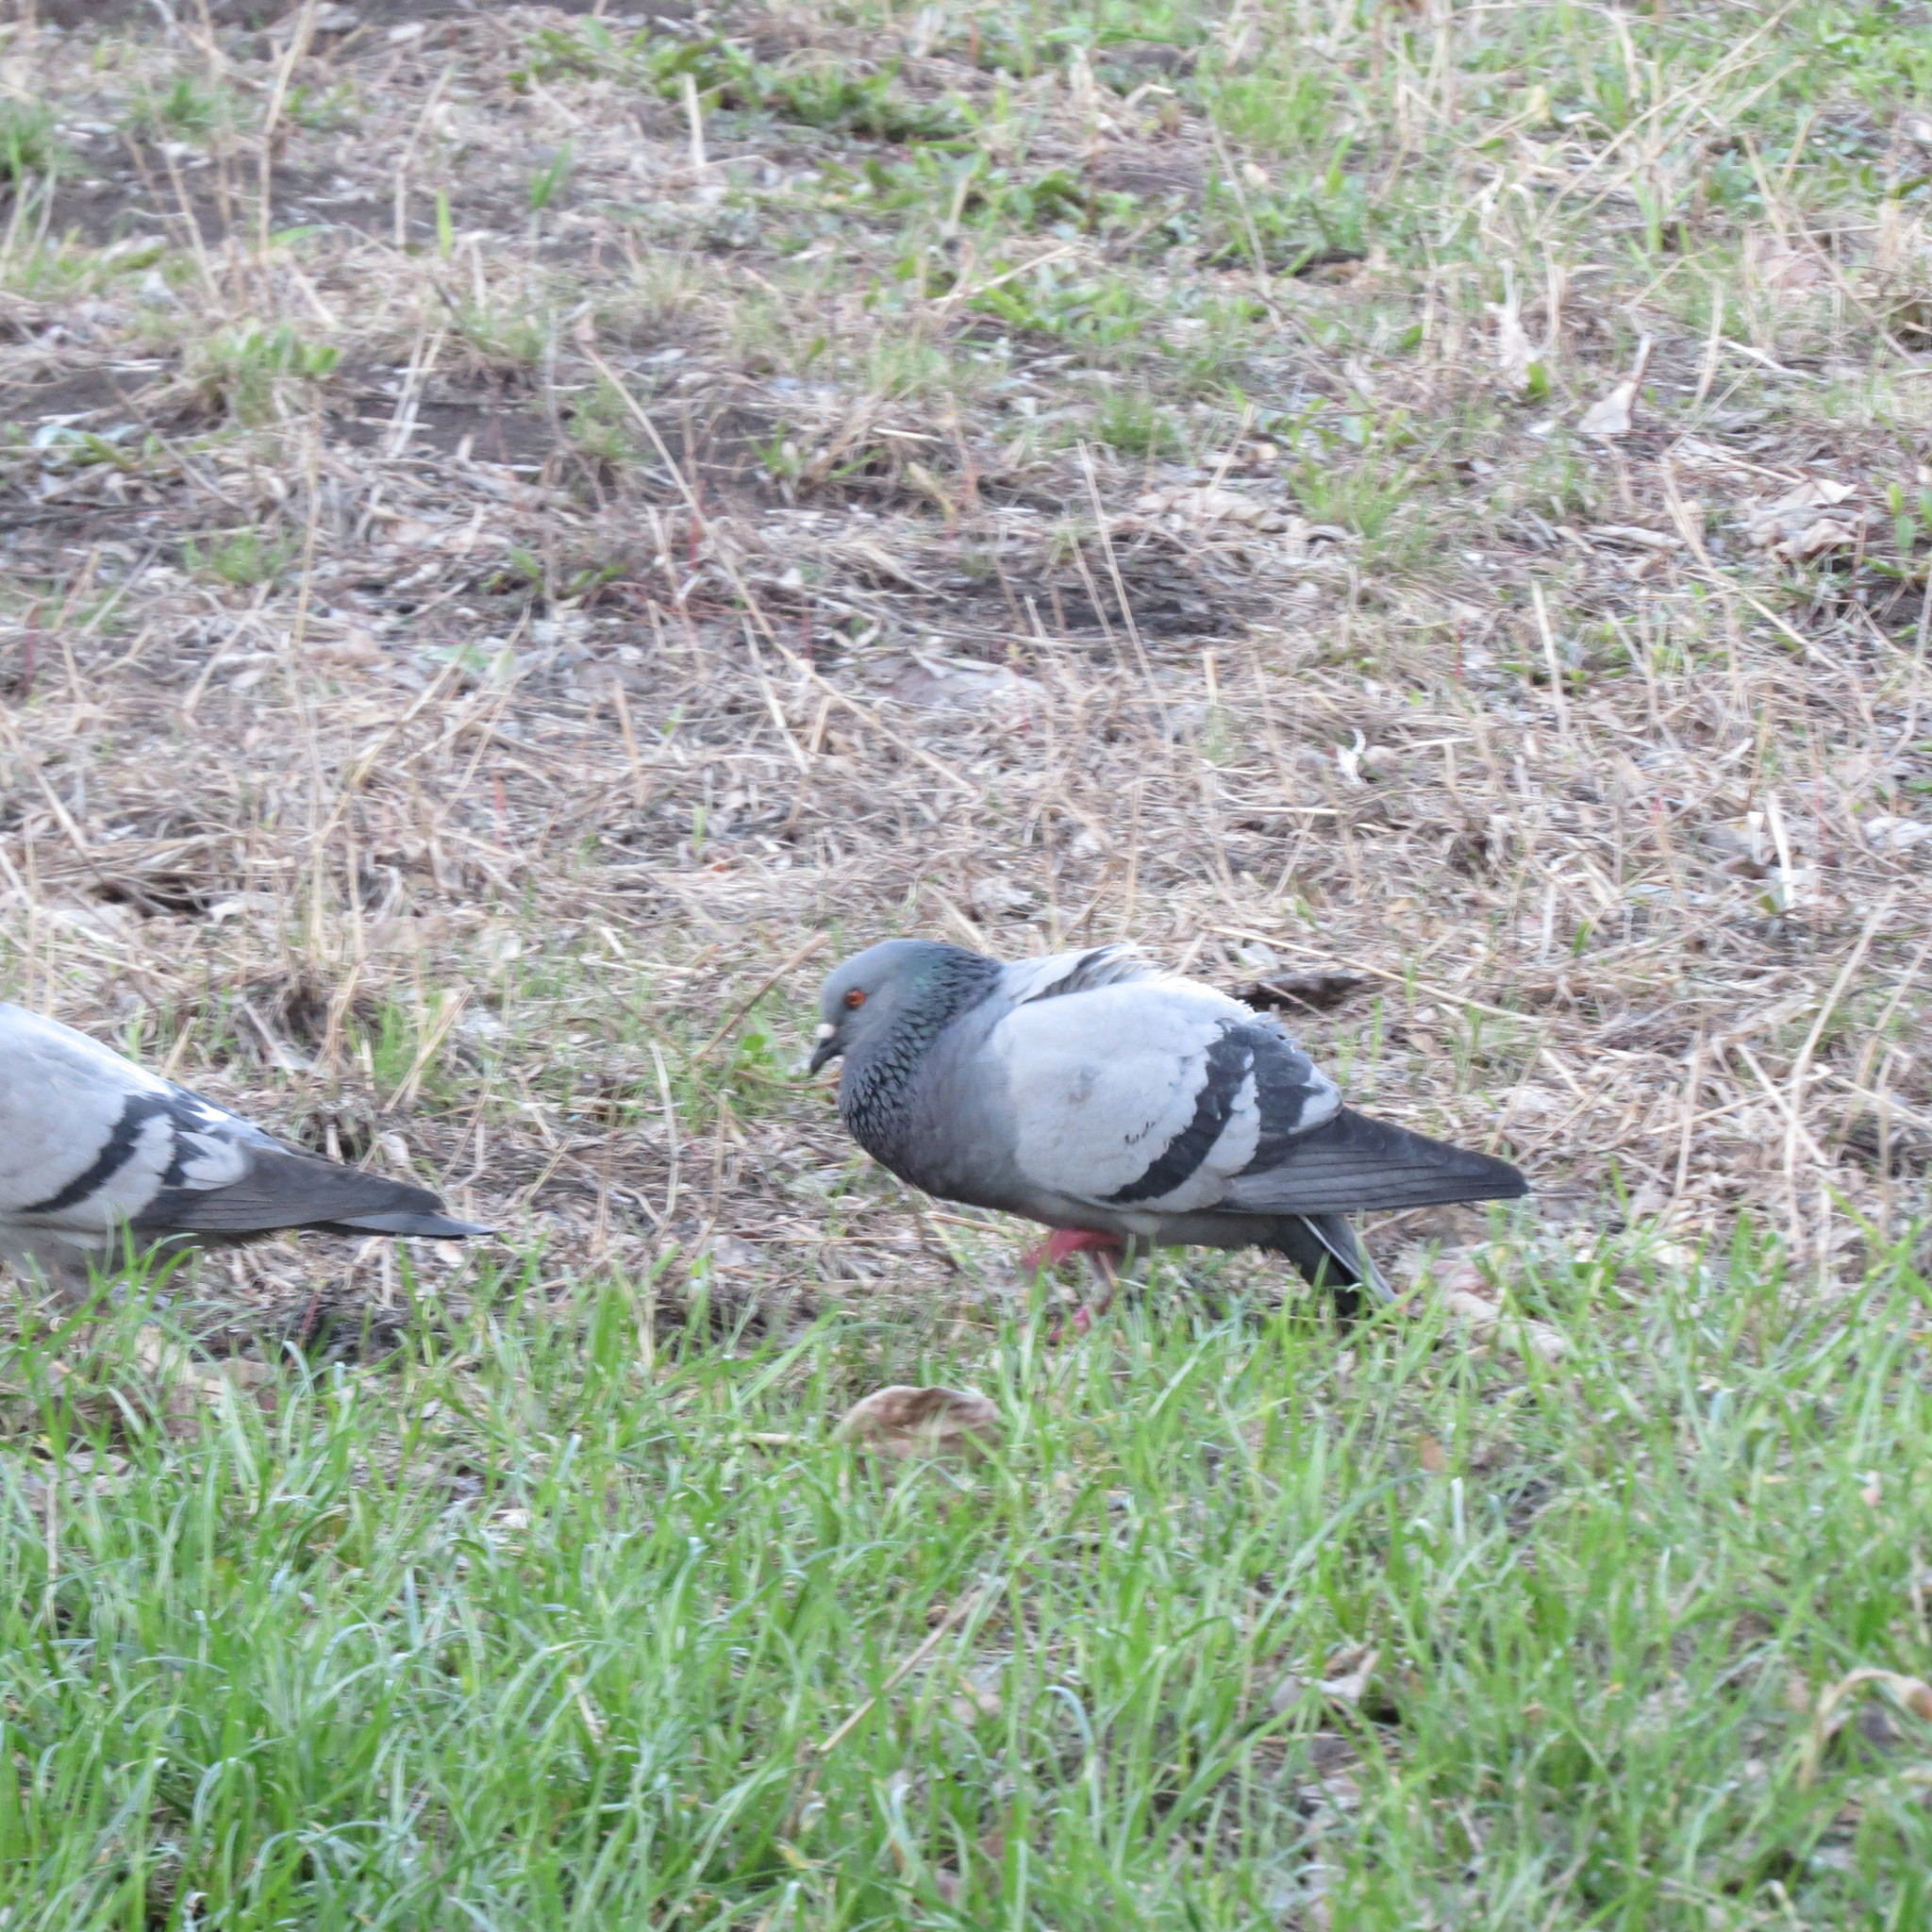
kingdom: Animalia
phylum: Chordata
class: Aves
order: Columbiformes
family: Columbidae
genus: Columba
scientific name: Columba livia
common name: Rock pigeon
